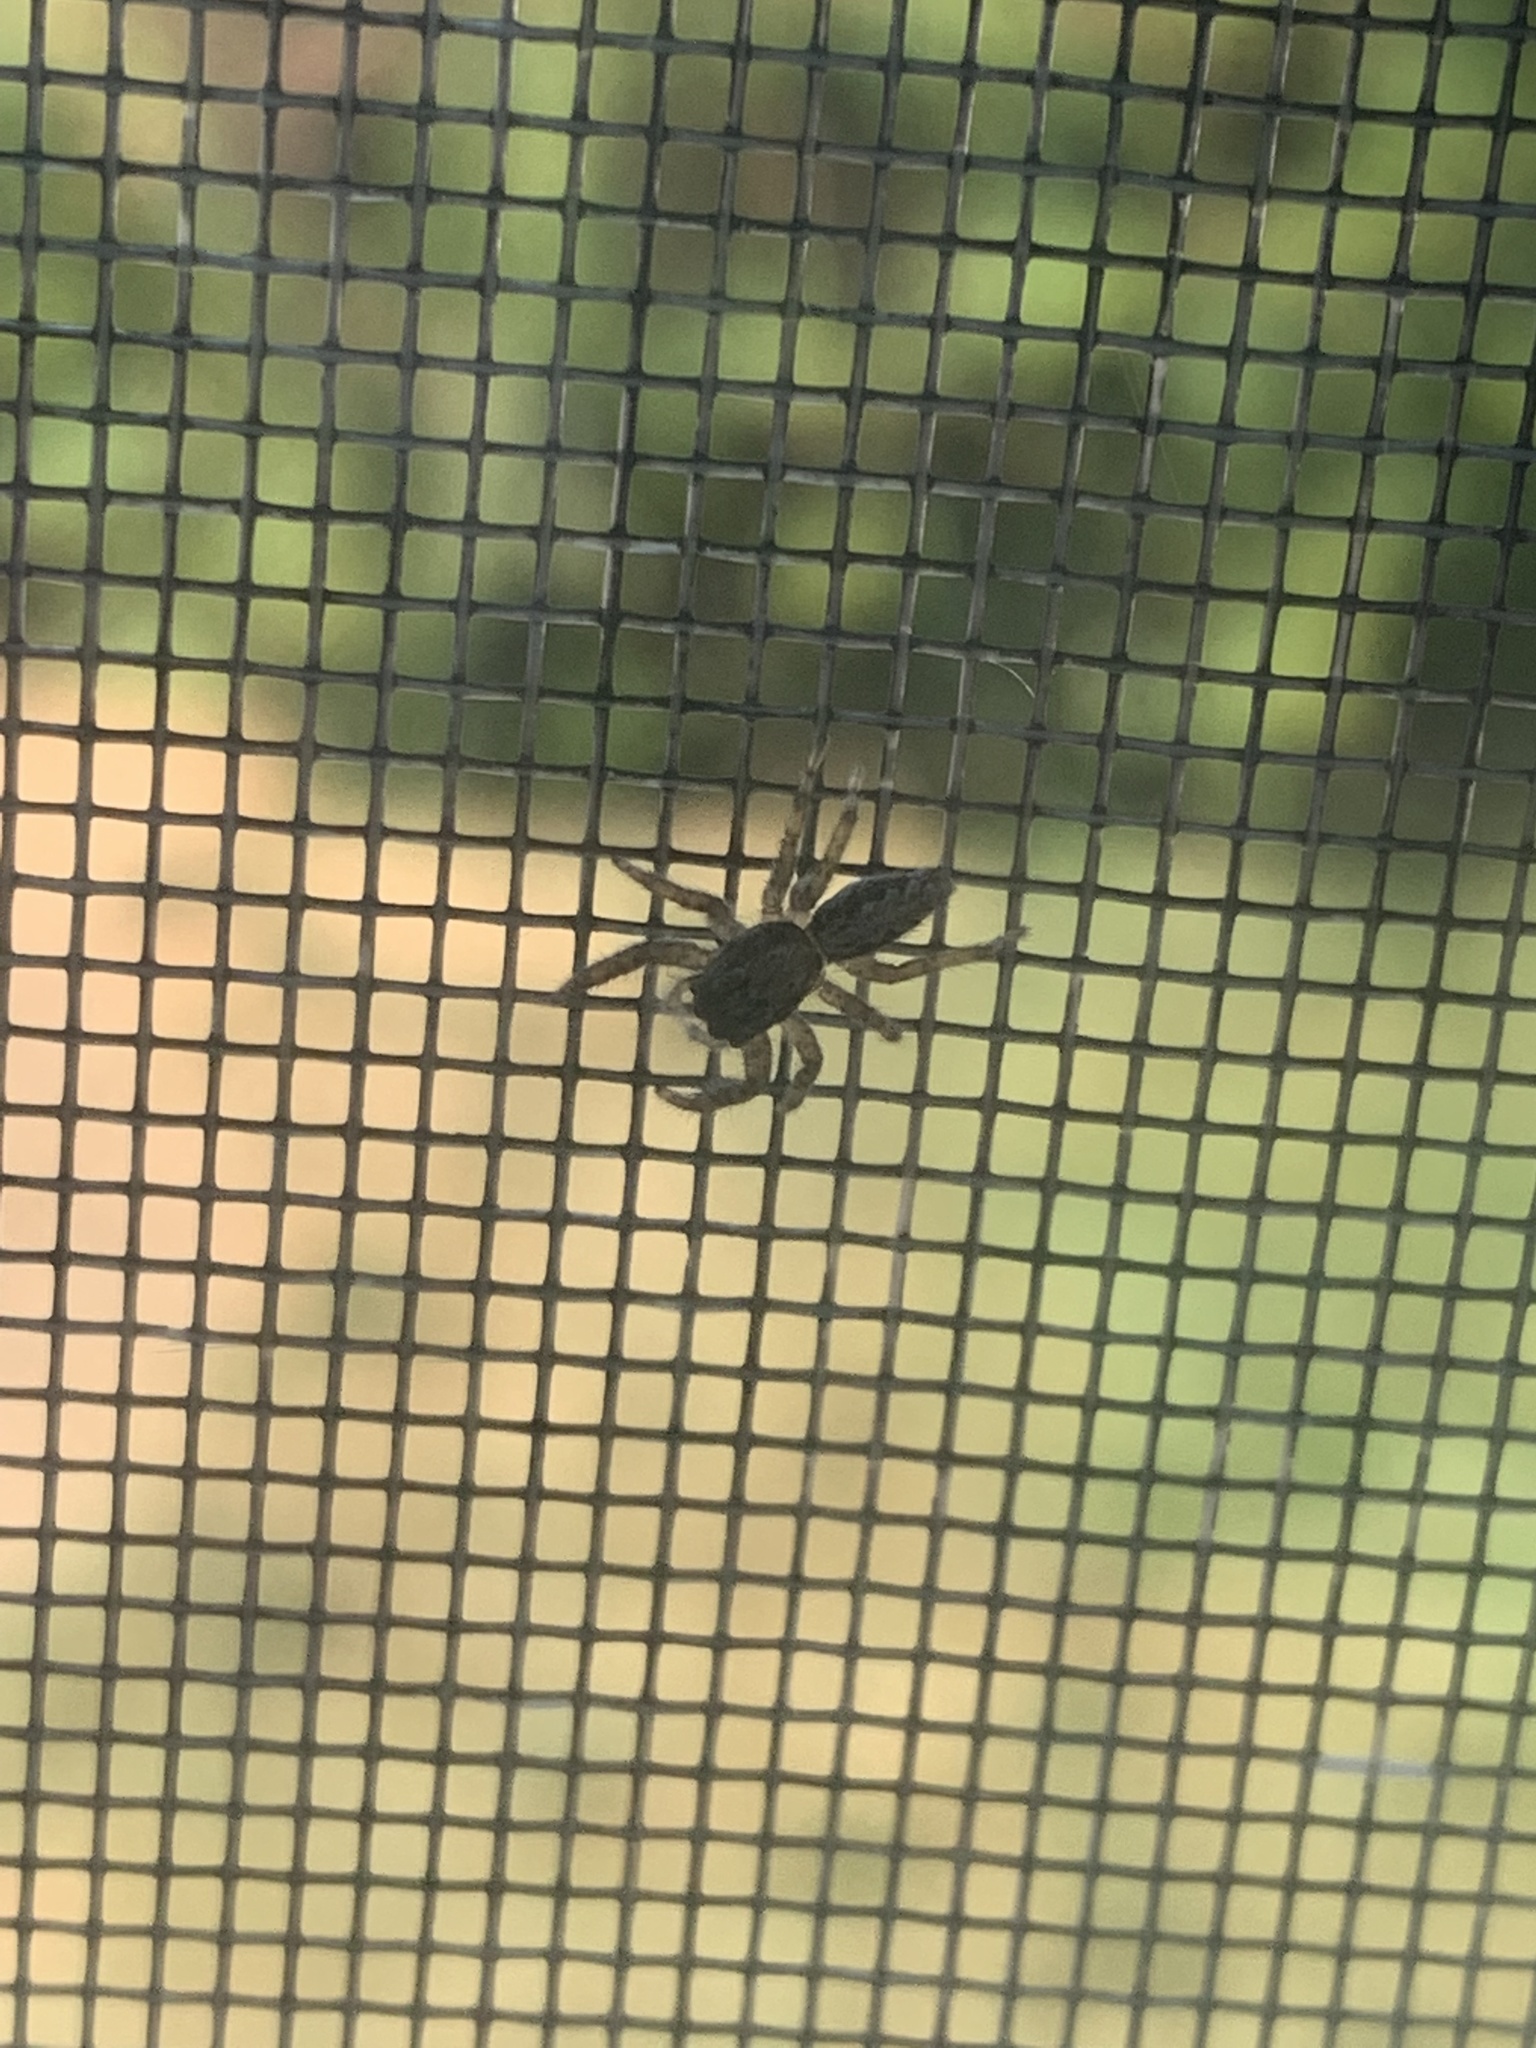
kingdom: Animalia
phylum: Arthropoda
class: Arachnida
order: Araneae
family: Salticidae
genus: Platycryptus
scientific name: Platycryptus californicus
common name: Jumping spiders
